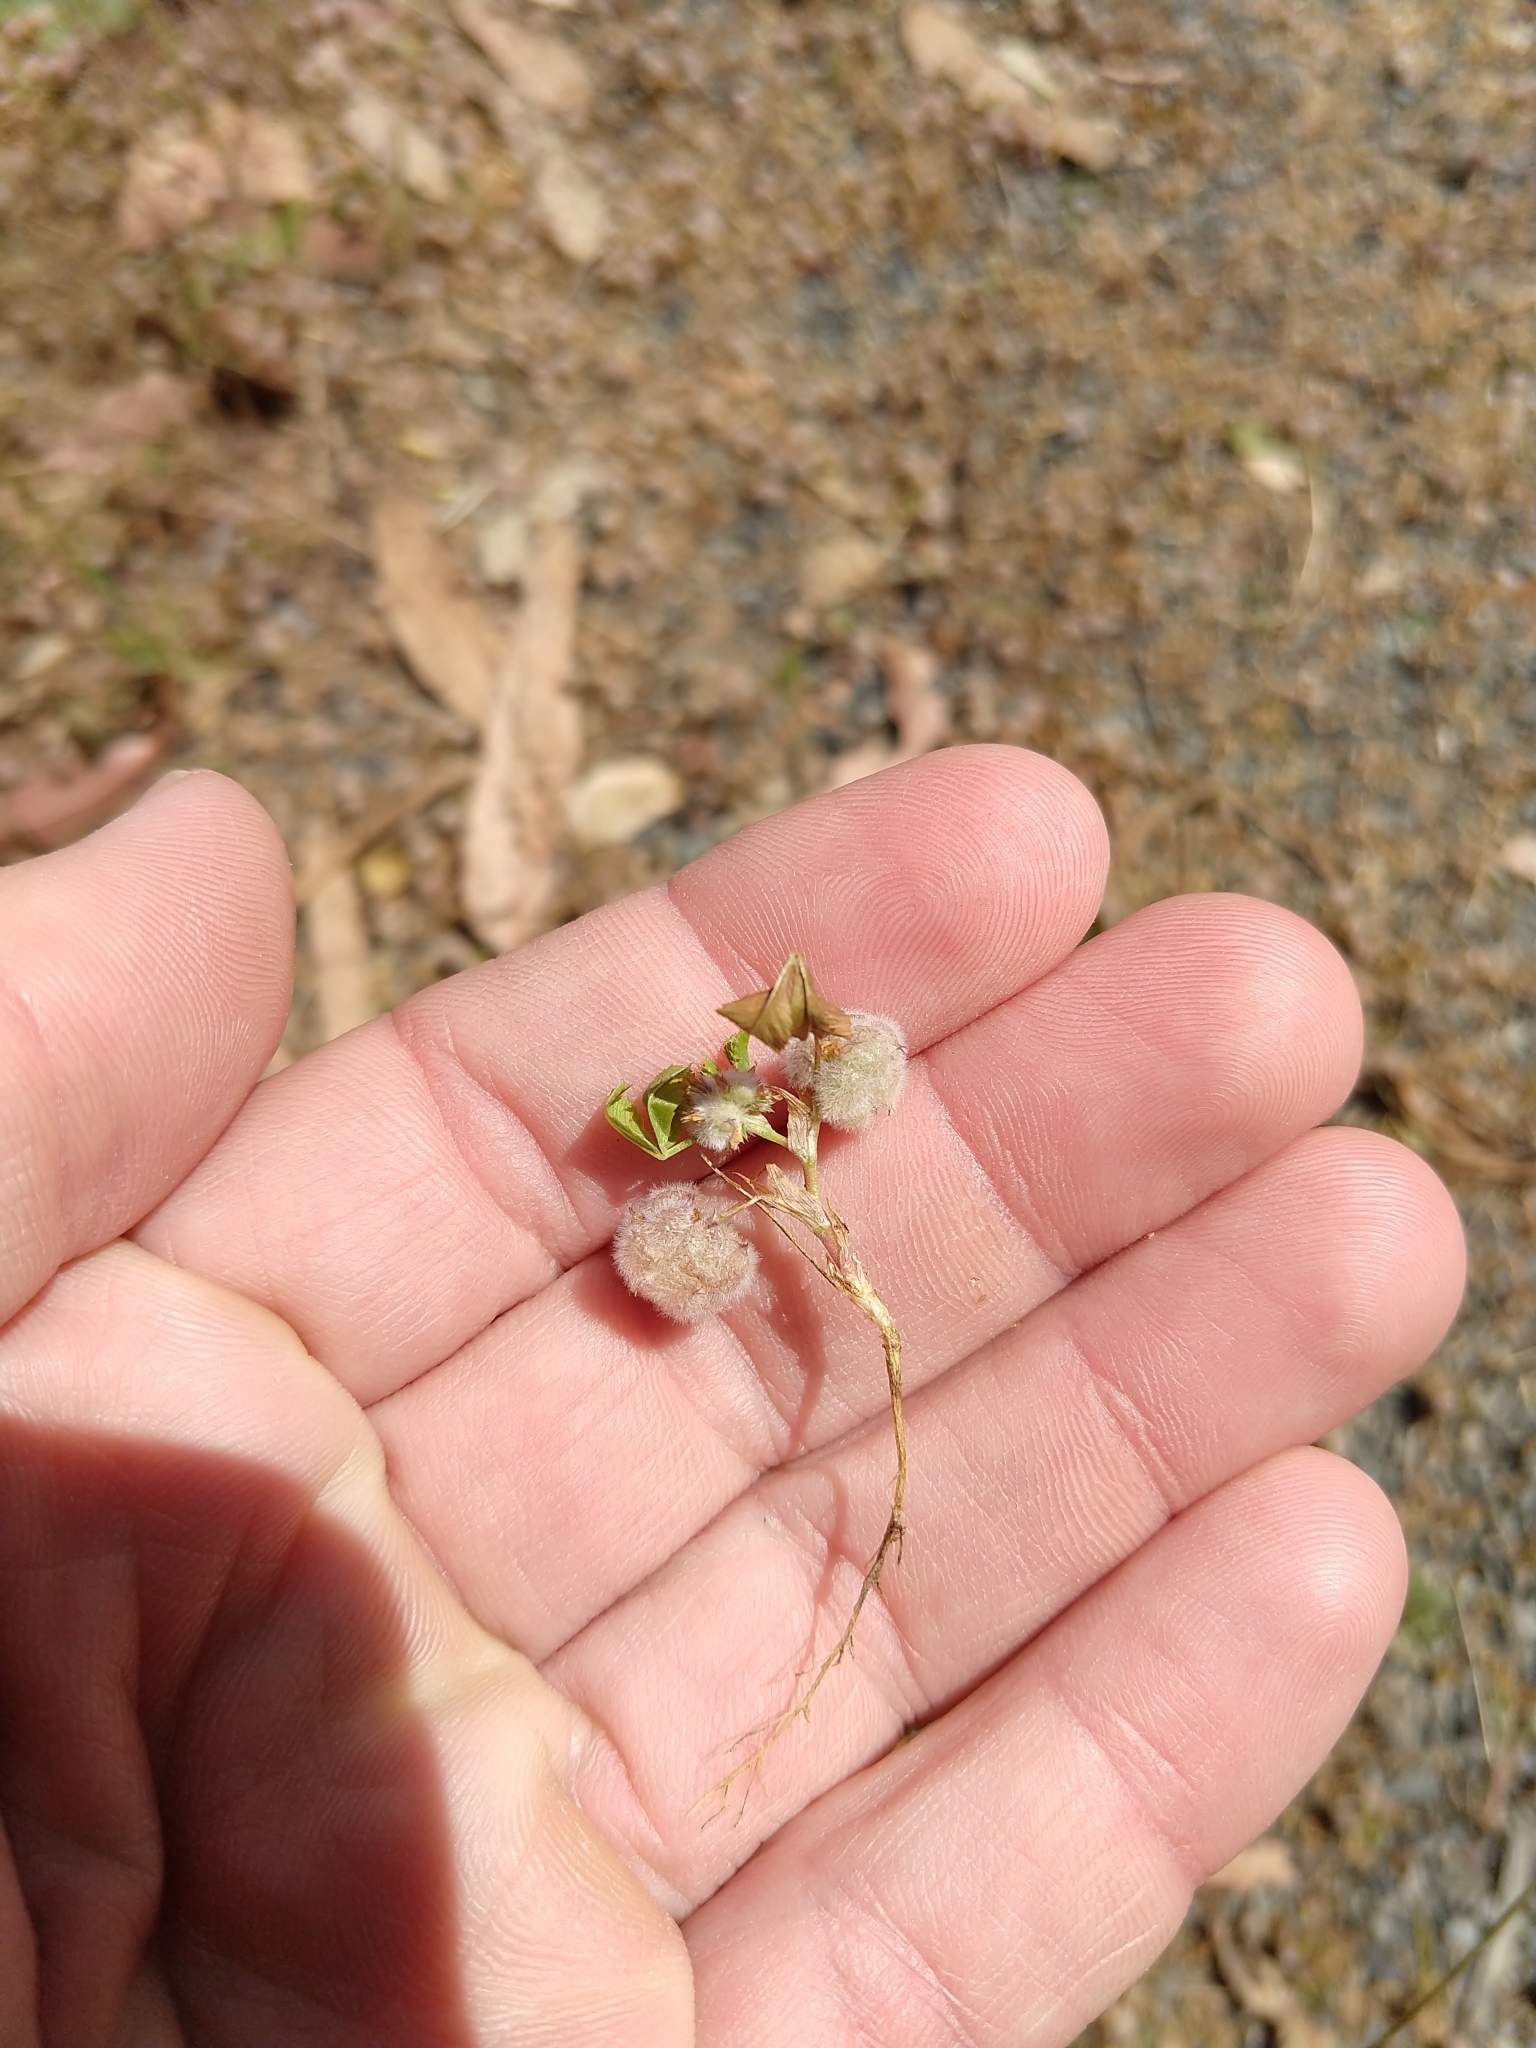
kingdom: Plantae
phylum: Tracheophyta
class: Magnoliopsida
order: Fabales
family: Fabaceae
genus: Trifolium
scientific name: Trifolium tomentosum
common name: Woolly clover
